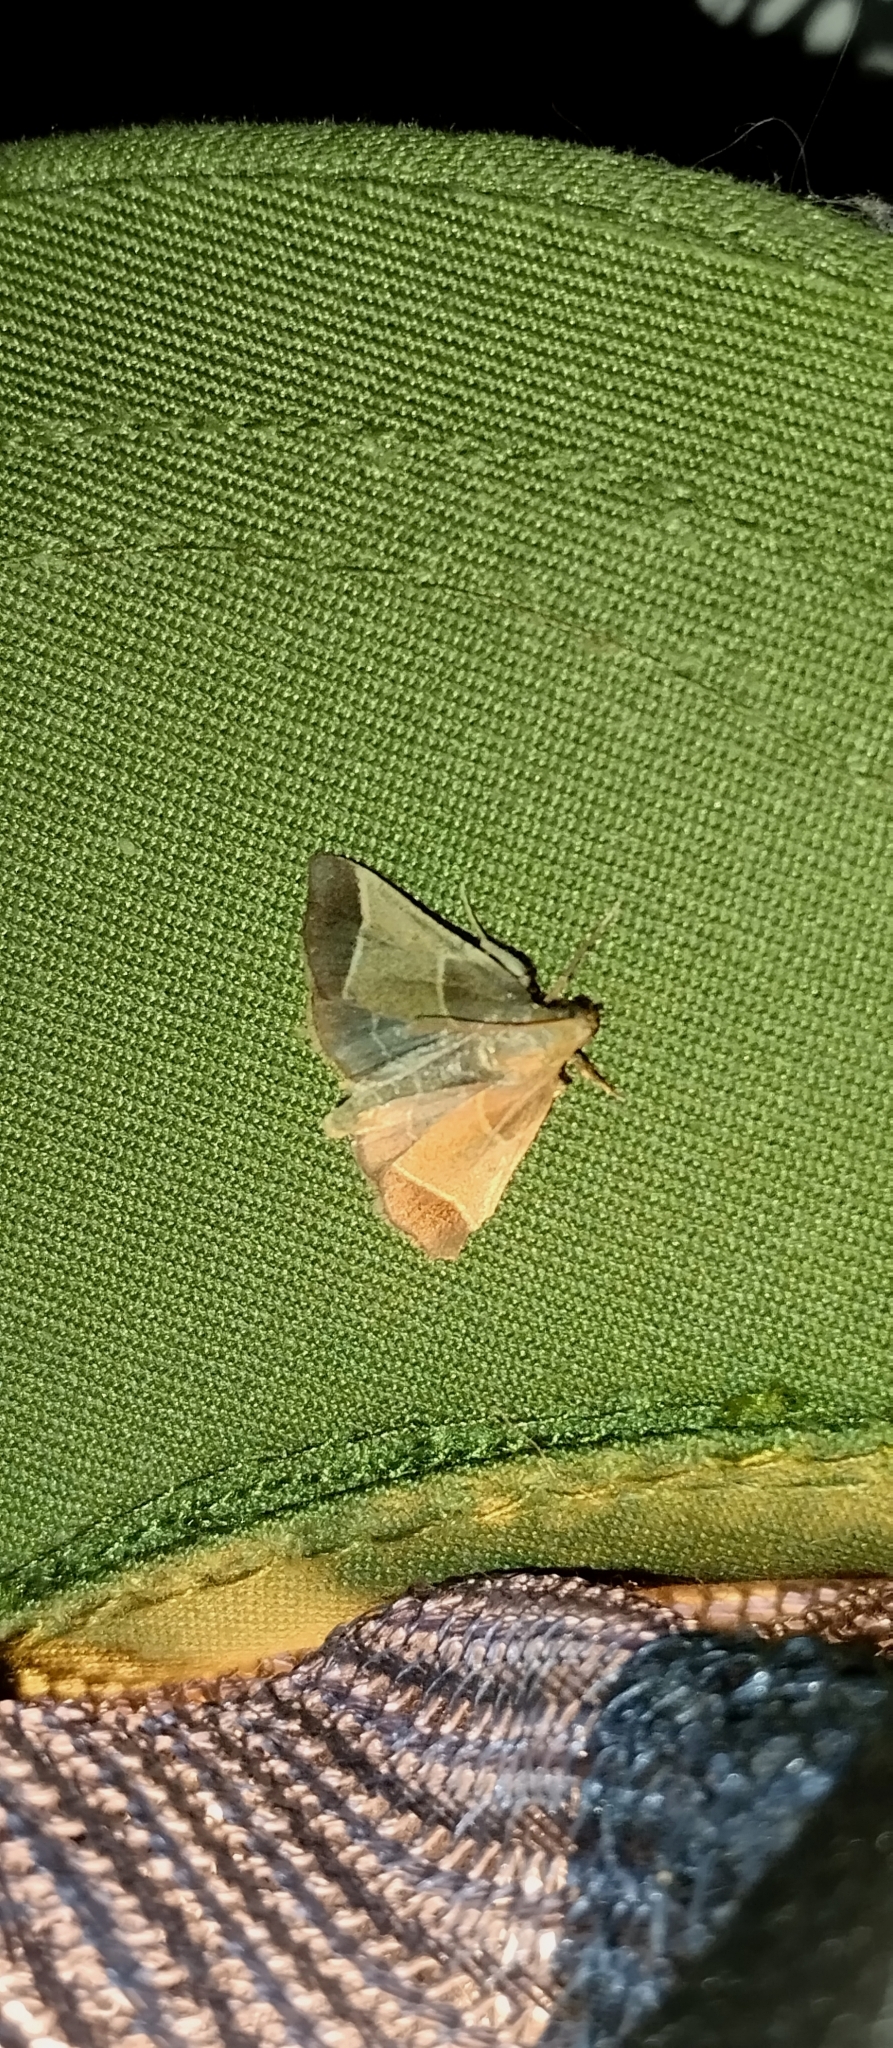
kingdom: Animalia
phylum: Arthropoda
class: Insecta
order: Lepidoptera
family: Pyralidae
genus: Pyralis
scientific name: Pyralis farinalis
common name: Meal moth
